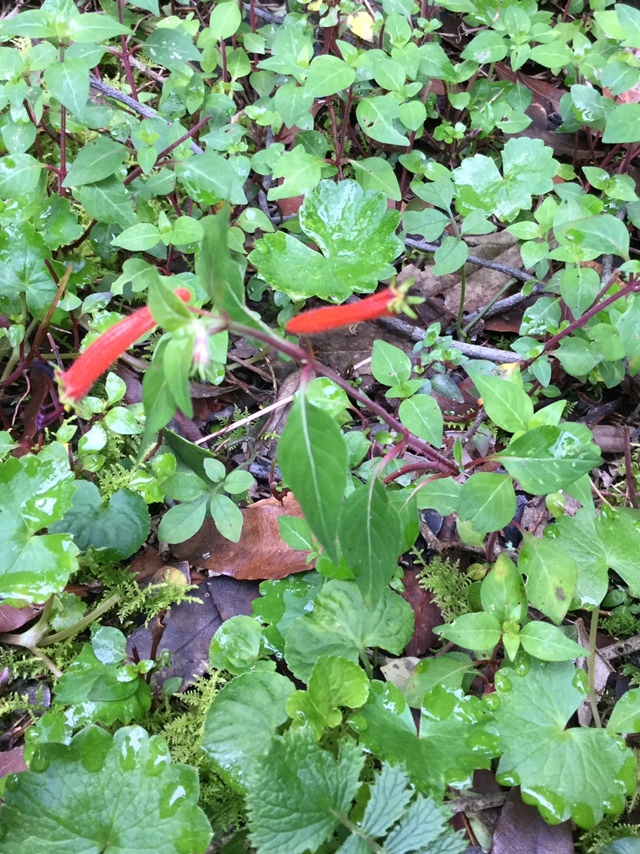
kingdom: Plantae
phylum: Tracheophyta
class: Magnoliopsida
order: Myrtales
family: Lythraceae
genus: Cuphea
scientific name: Cuphea bustamanta
